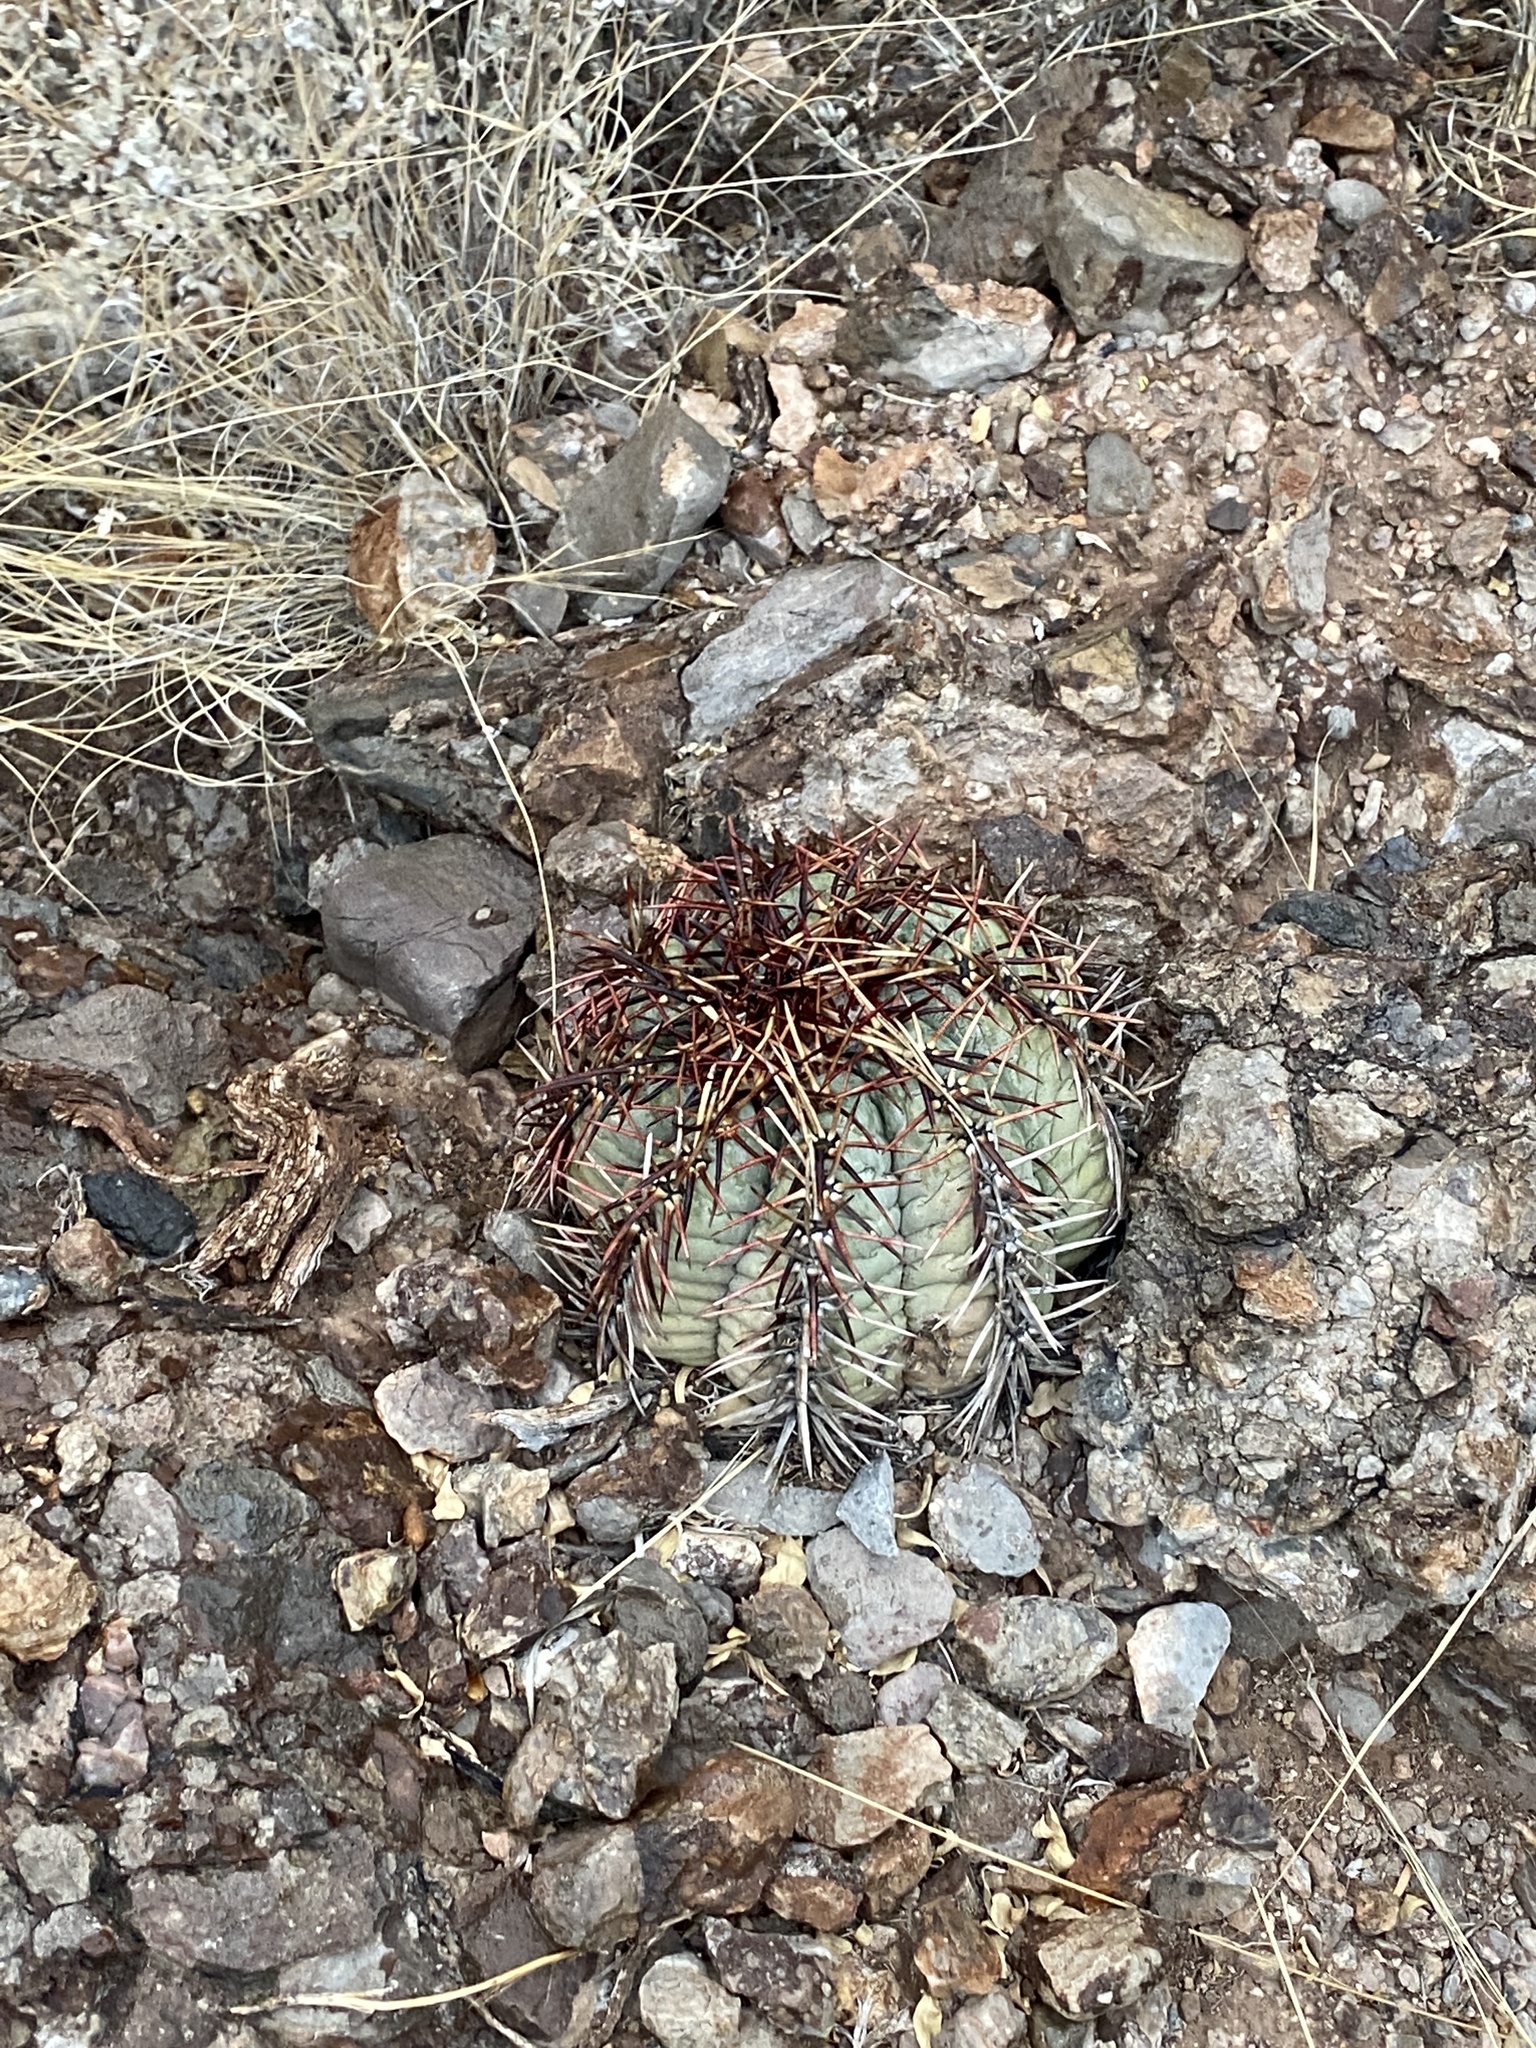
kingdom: Plantae
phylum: Tracheophyta
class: Magnoliopsida
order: Caryophyllales
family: Cactaceae
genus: Echinocactus
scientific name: Echinocactus horizonthalonius
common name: Devilshead
